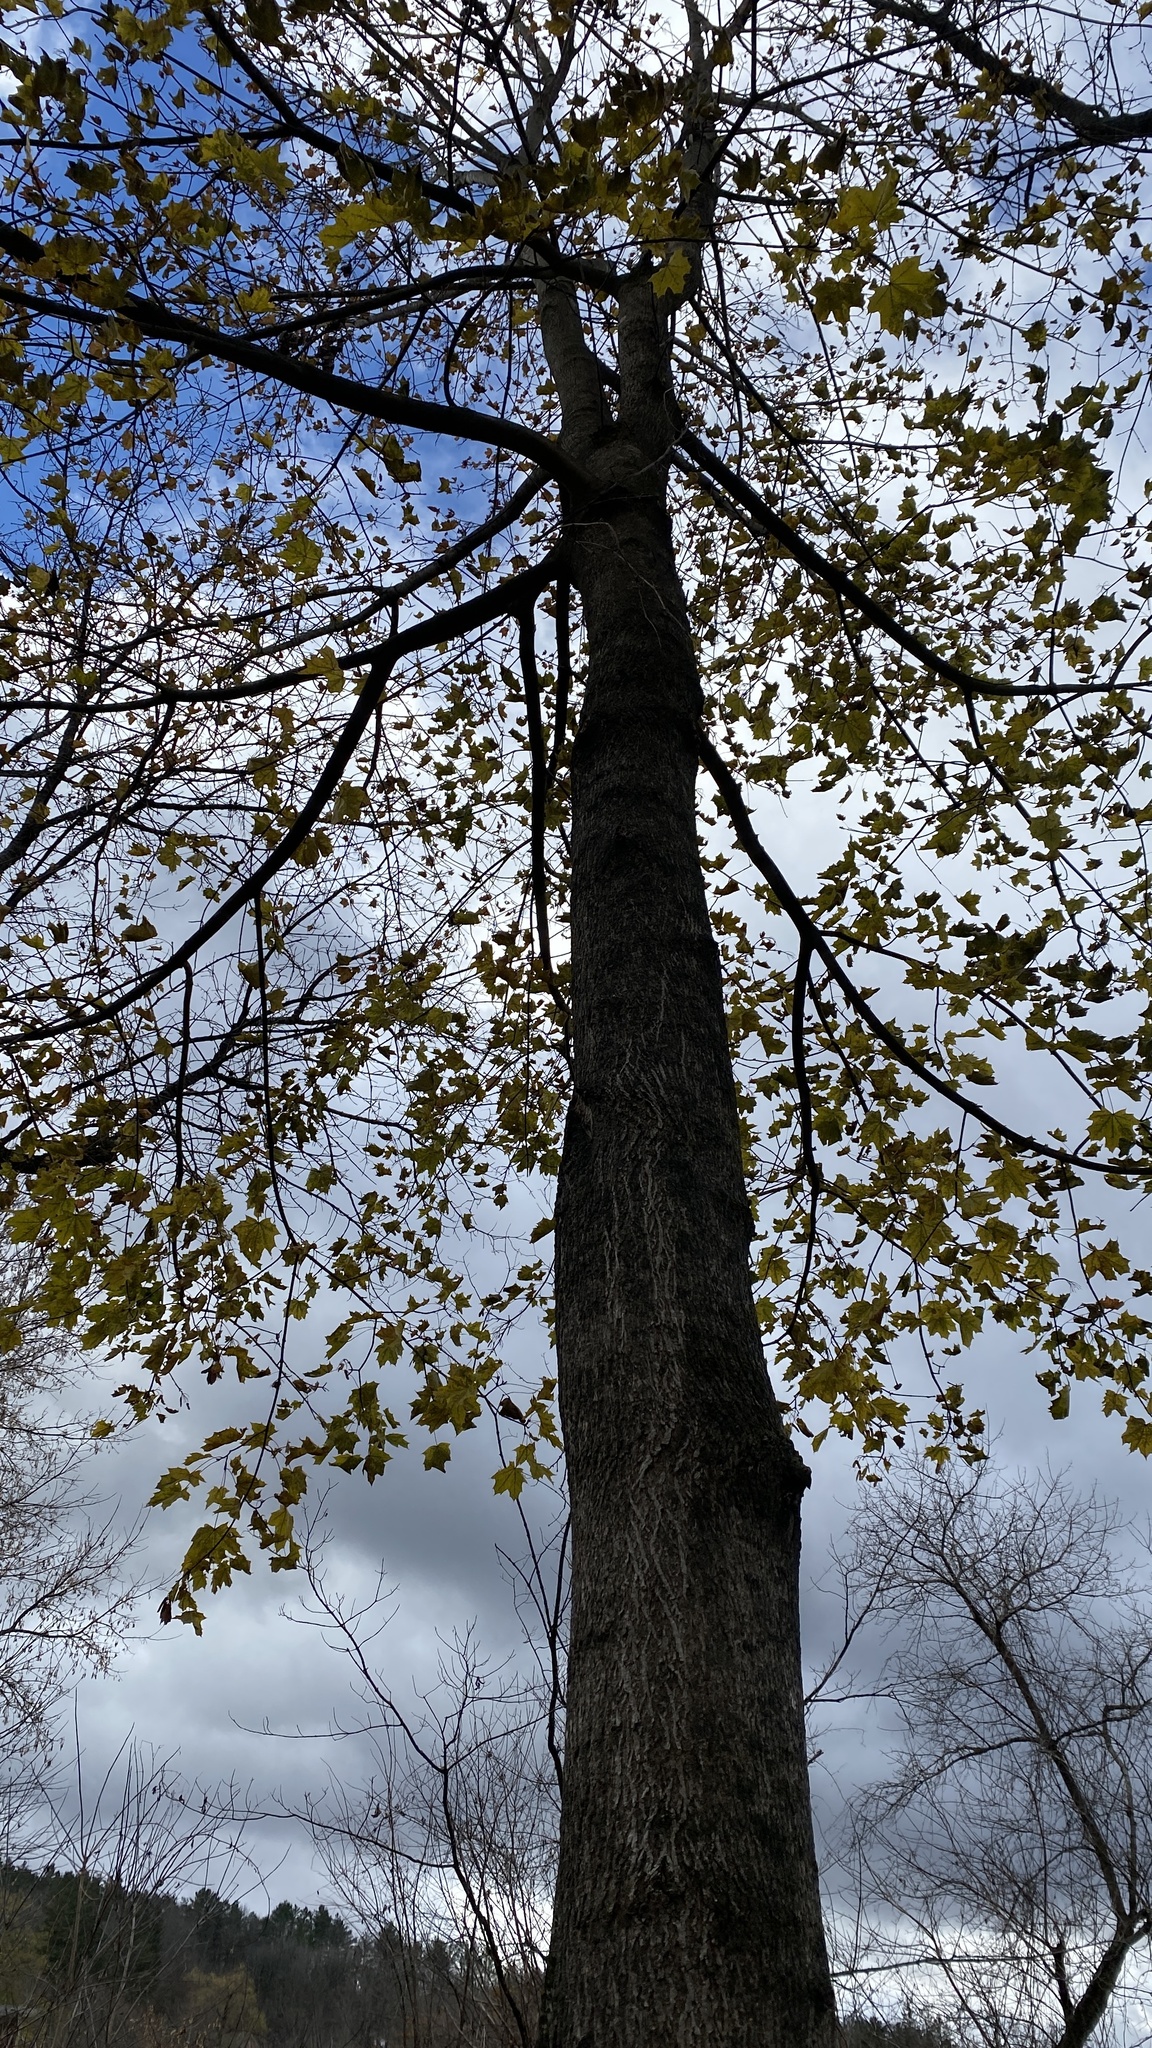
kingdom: Plantae
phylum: Tracheophyta
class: Magnoliopsida
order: Sapindales
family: Sapindaceae
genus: Acer
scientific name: Acer platanoides
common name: Norway maple
